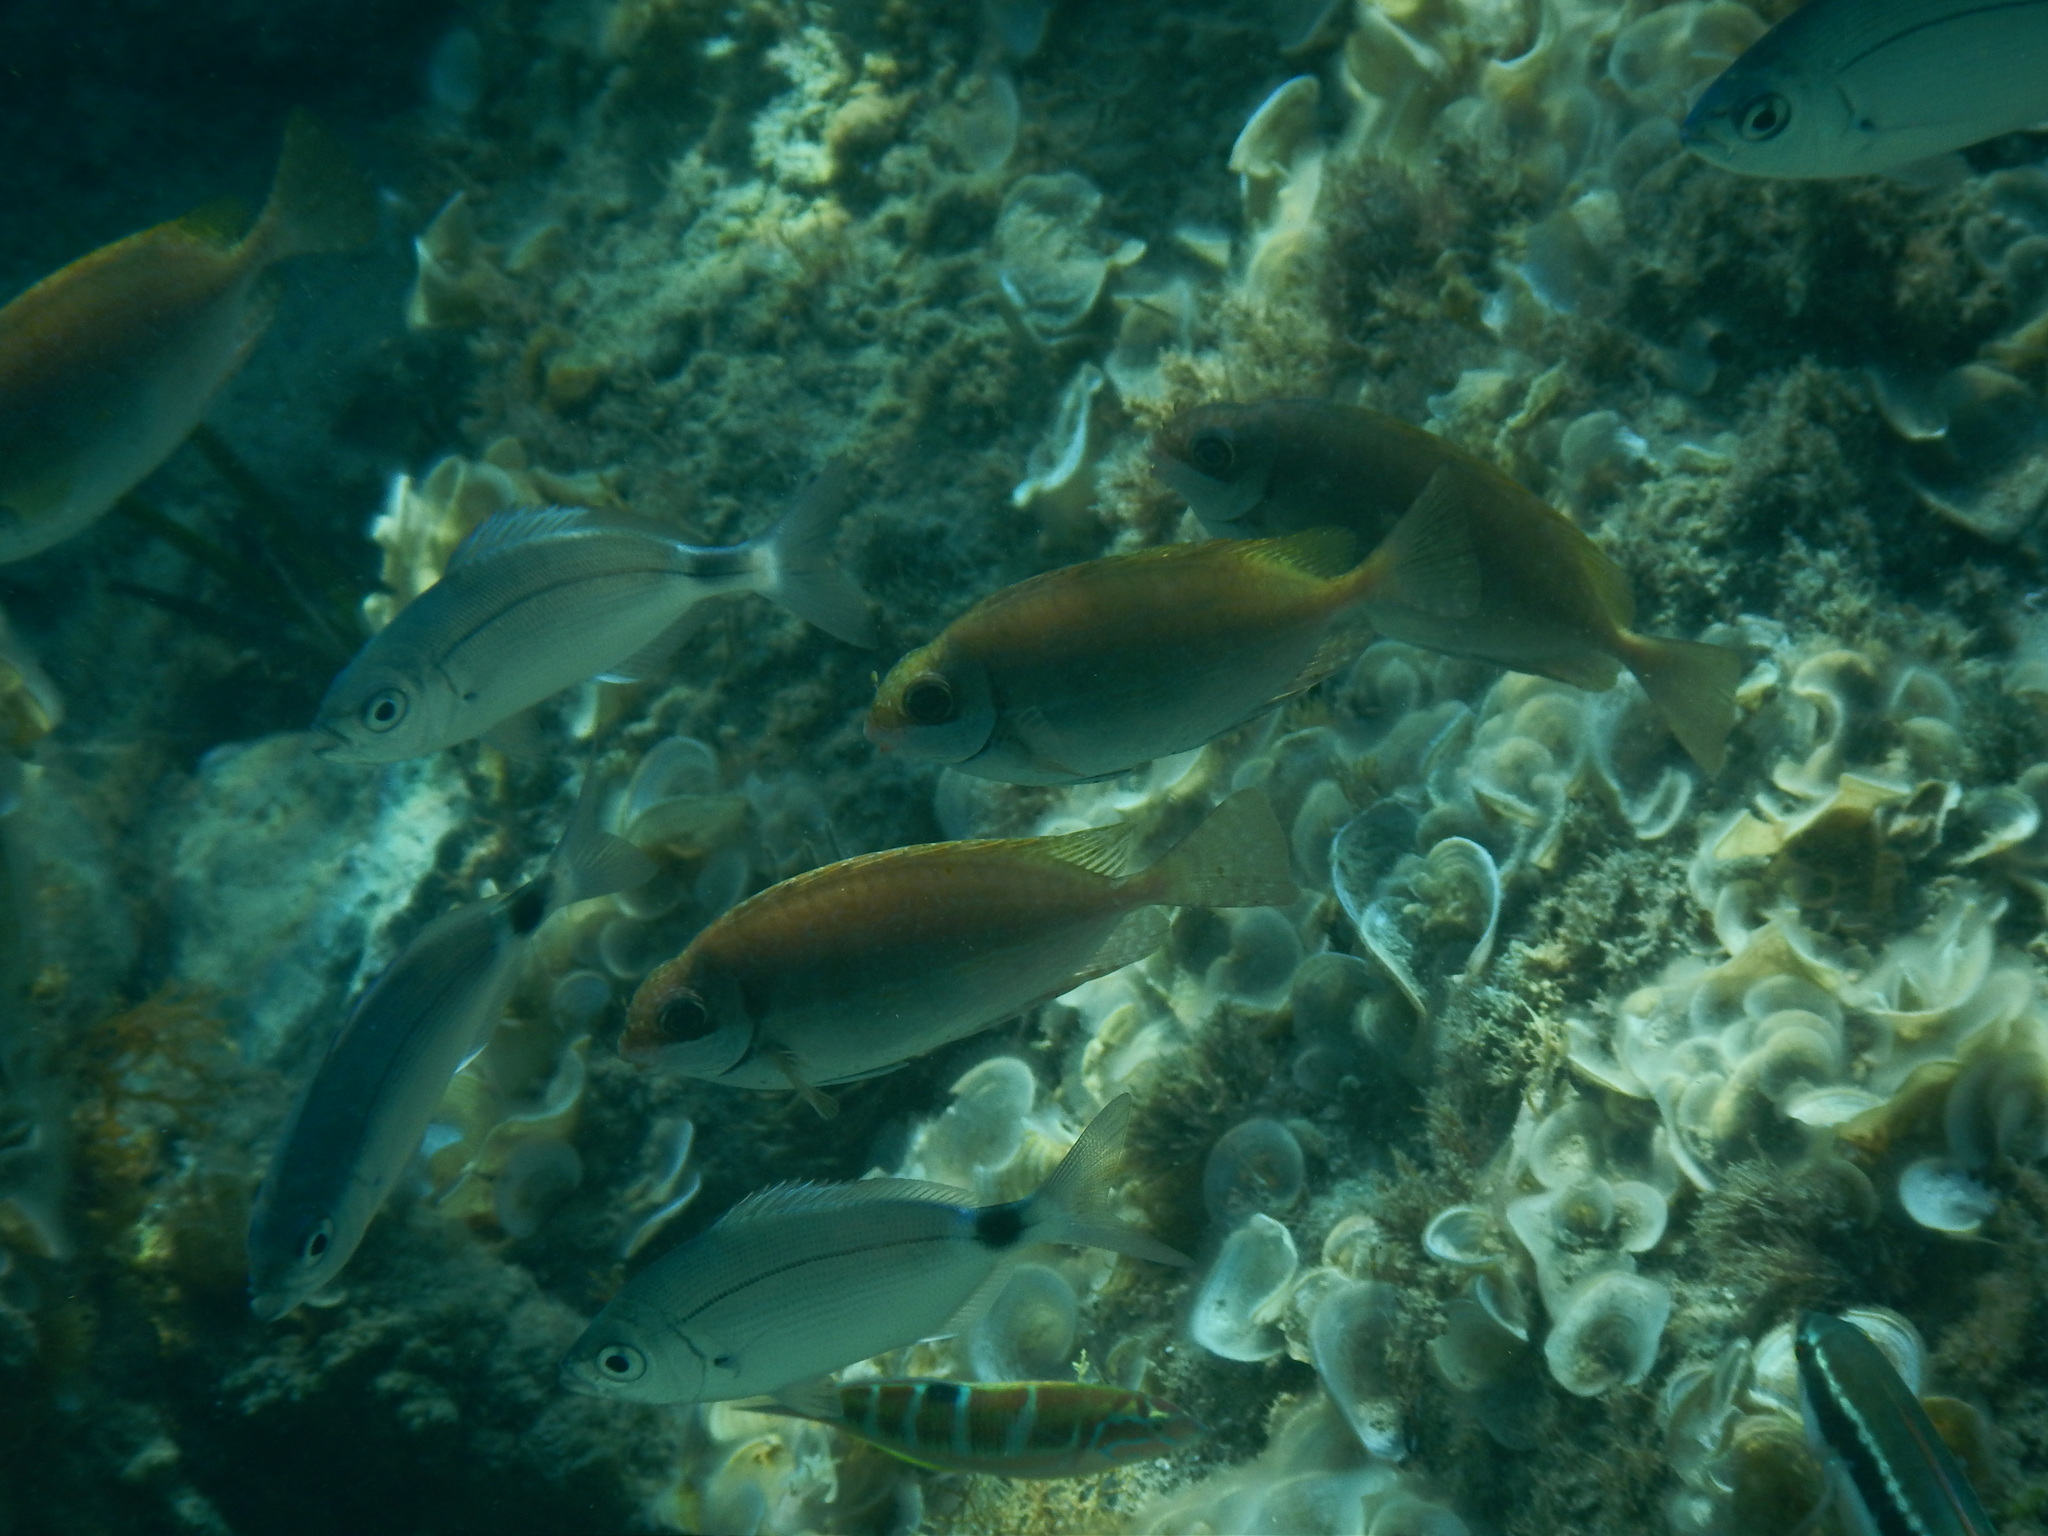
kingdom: Animalia
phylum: Chordata
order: Perciformes
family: Siganidae
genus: Siganus
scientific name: Siganus luridus
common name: Dusky spinefoot
